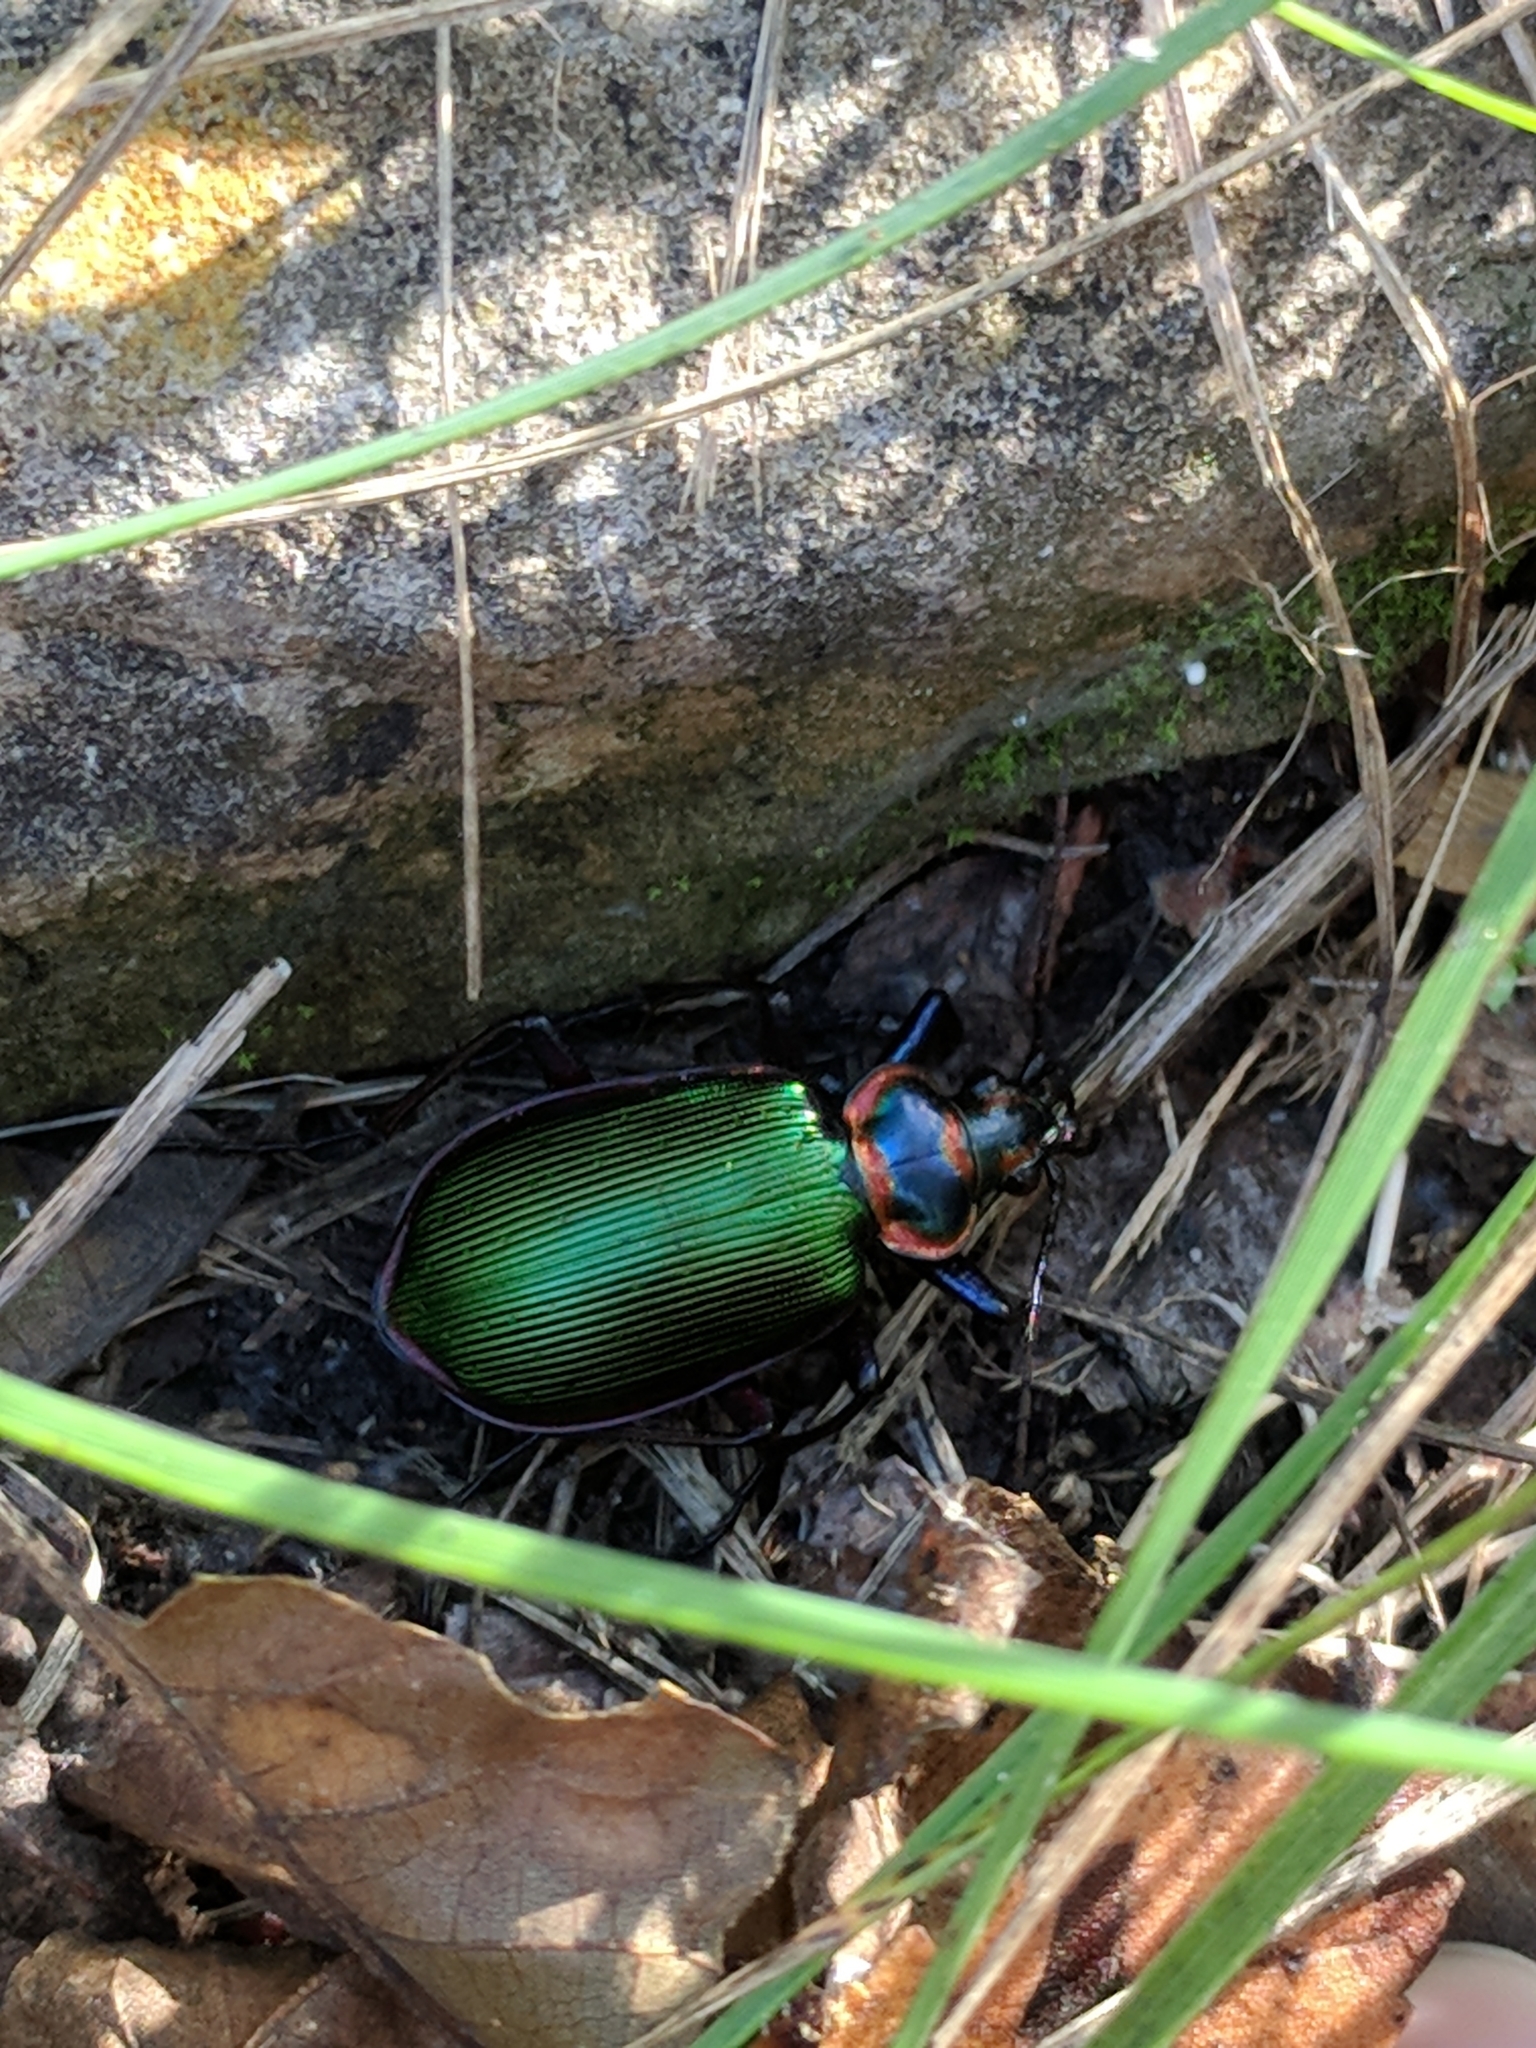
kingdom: Animalia
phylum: Arthropoda
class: Insecta
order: Coleoptera
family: Carabidae
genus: Calosoma
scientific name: Calosoma scrutator
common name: Fiery searcher beetle
